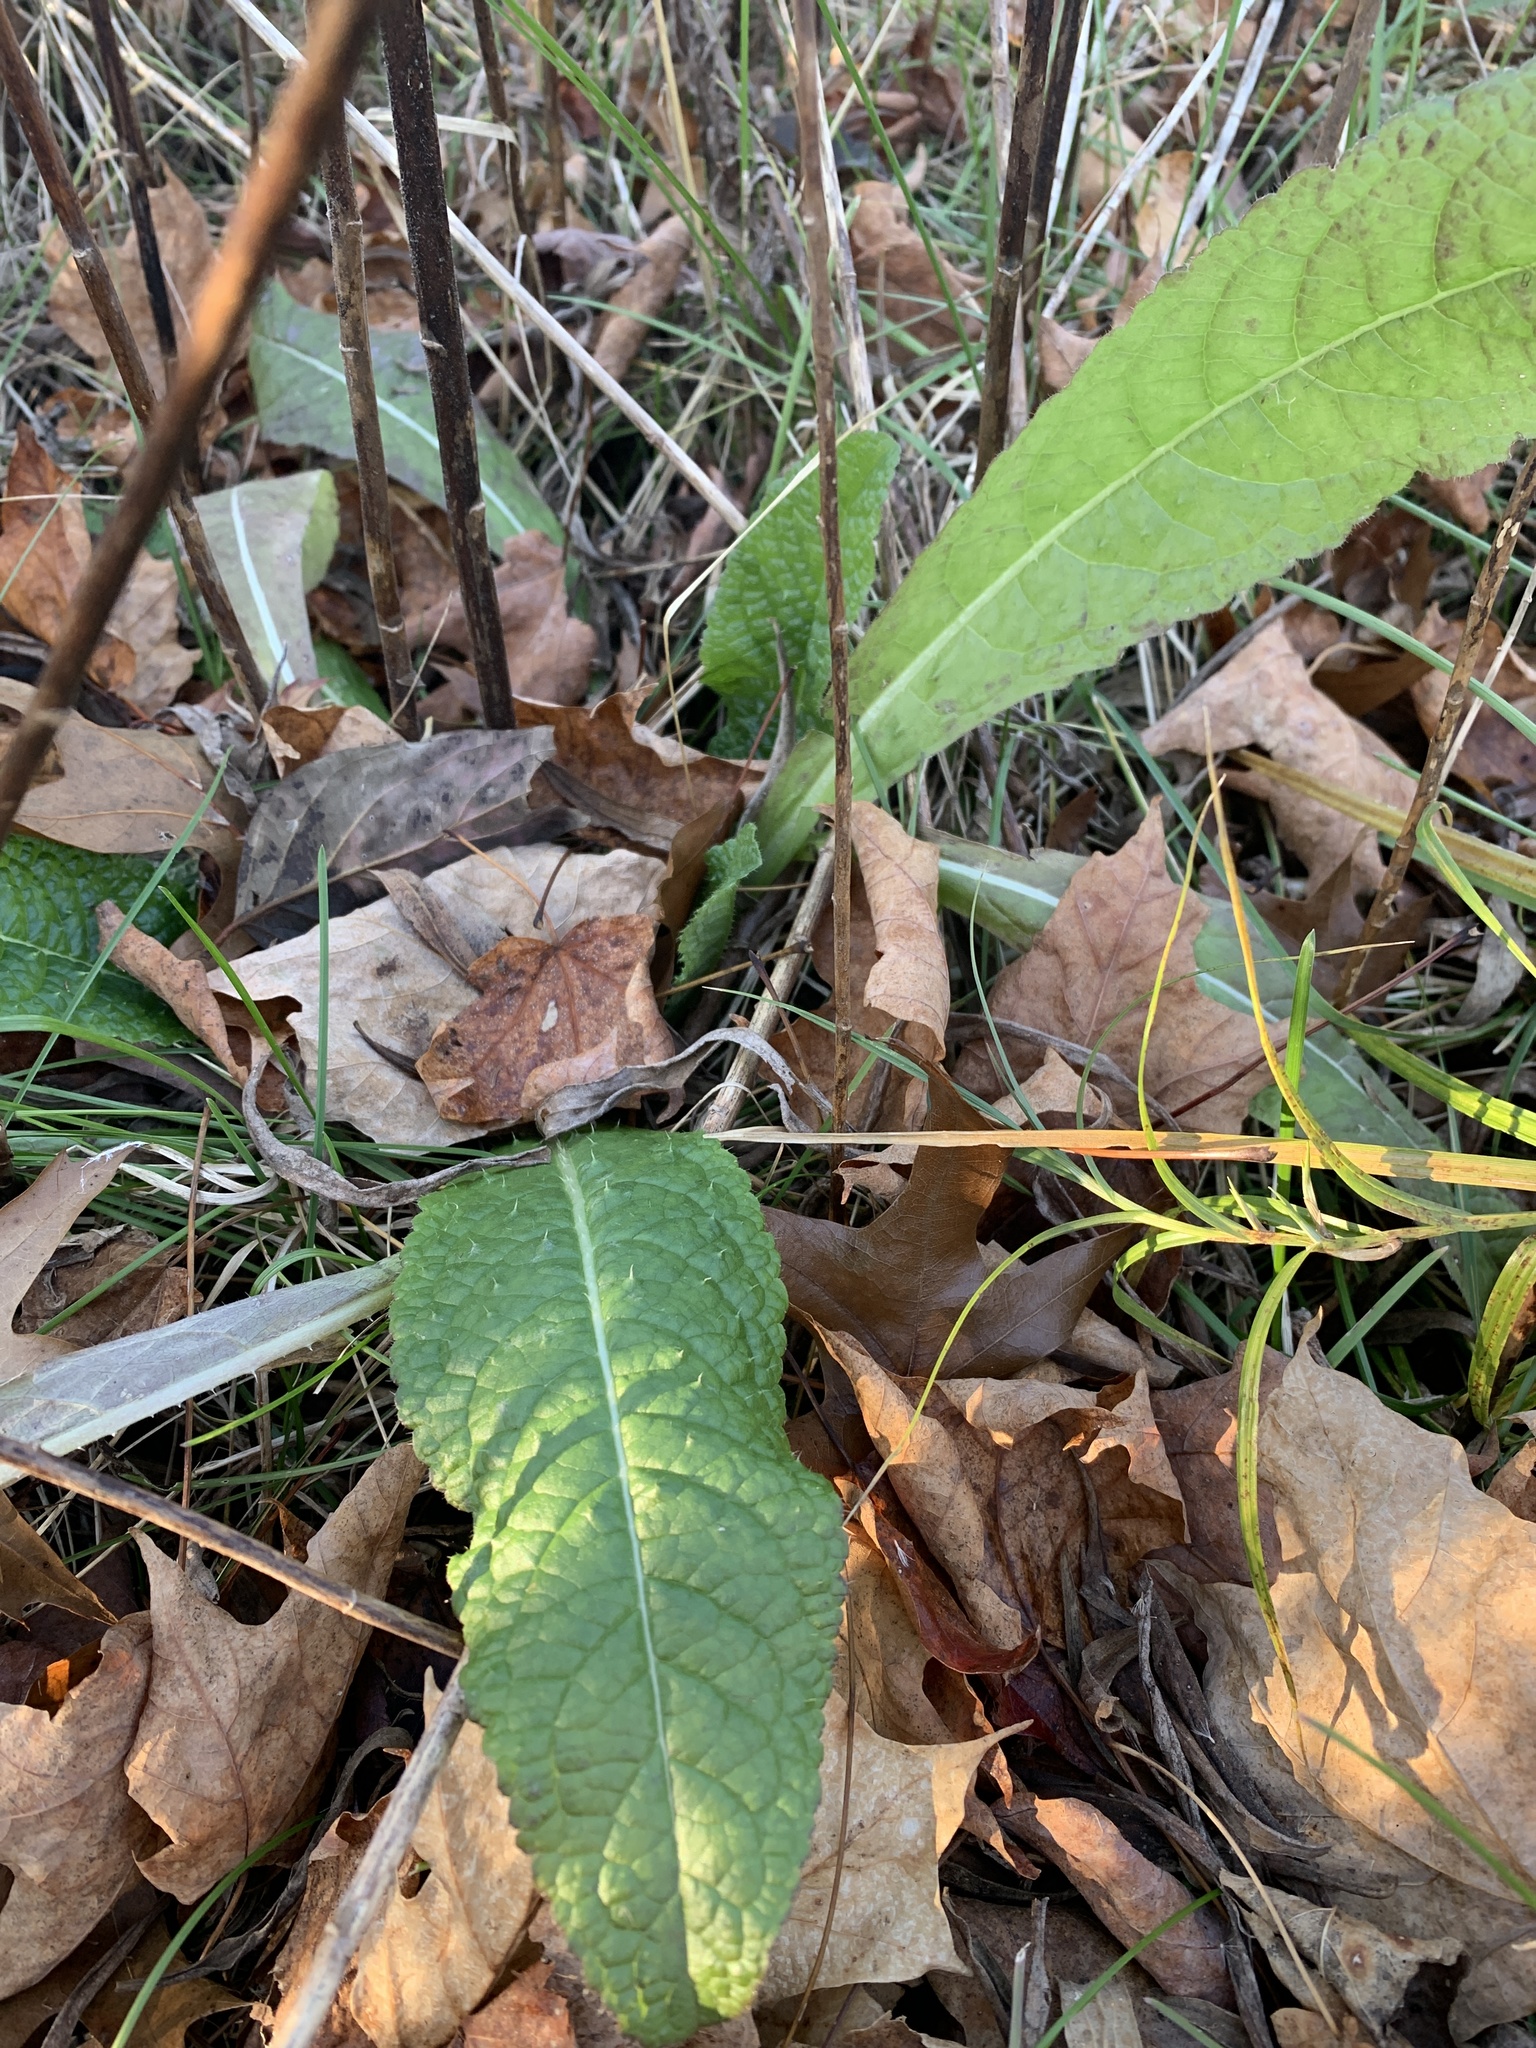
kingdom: Plantae
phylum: Tracheophyta
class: Magnoliopsida
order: Dipsacales
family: Caprifoliaceae
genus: Dipsacus
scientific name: Dipsacus fullonum
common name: Teasel
